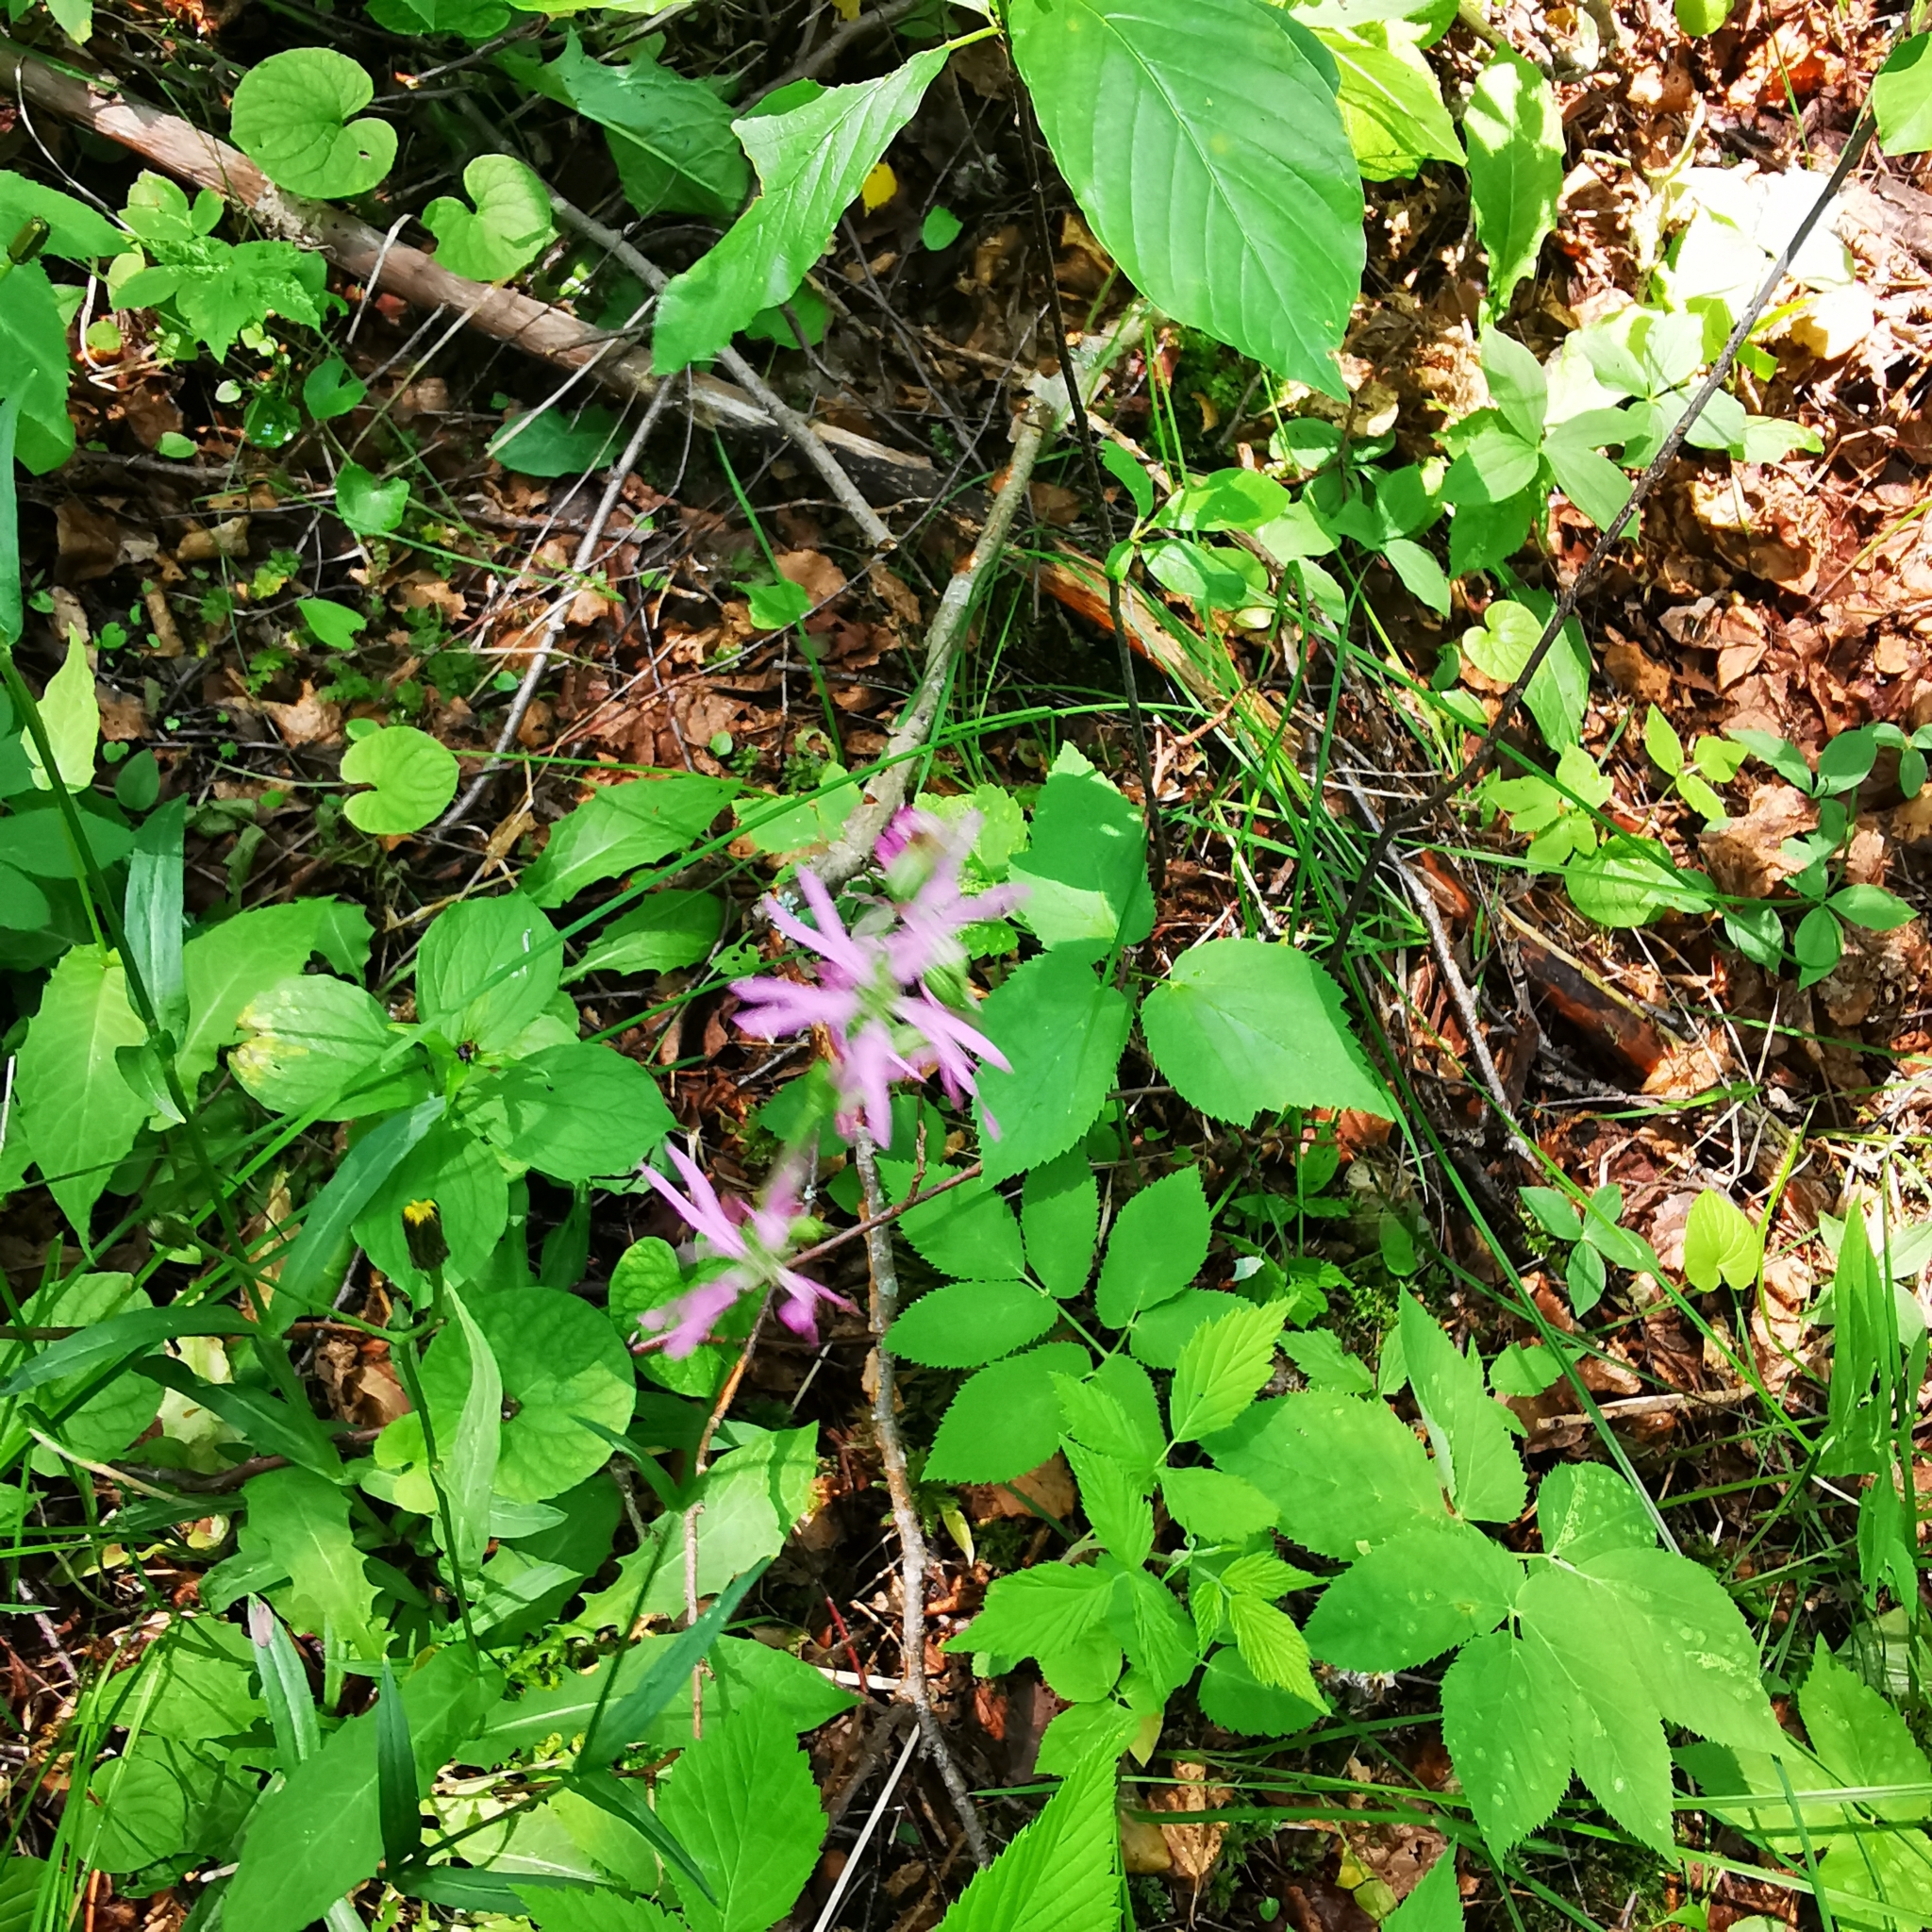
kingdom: Plantae
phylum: Tracheophyta
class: Magnoliopsida
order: Caryophyllales
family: Caryophyllaceae
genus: Silene
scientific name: Silene flos-cuculi
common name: Ragged-robin
